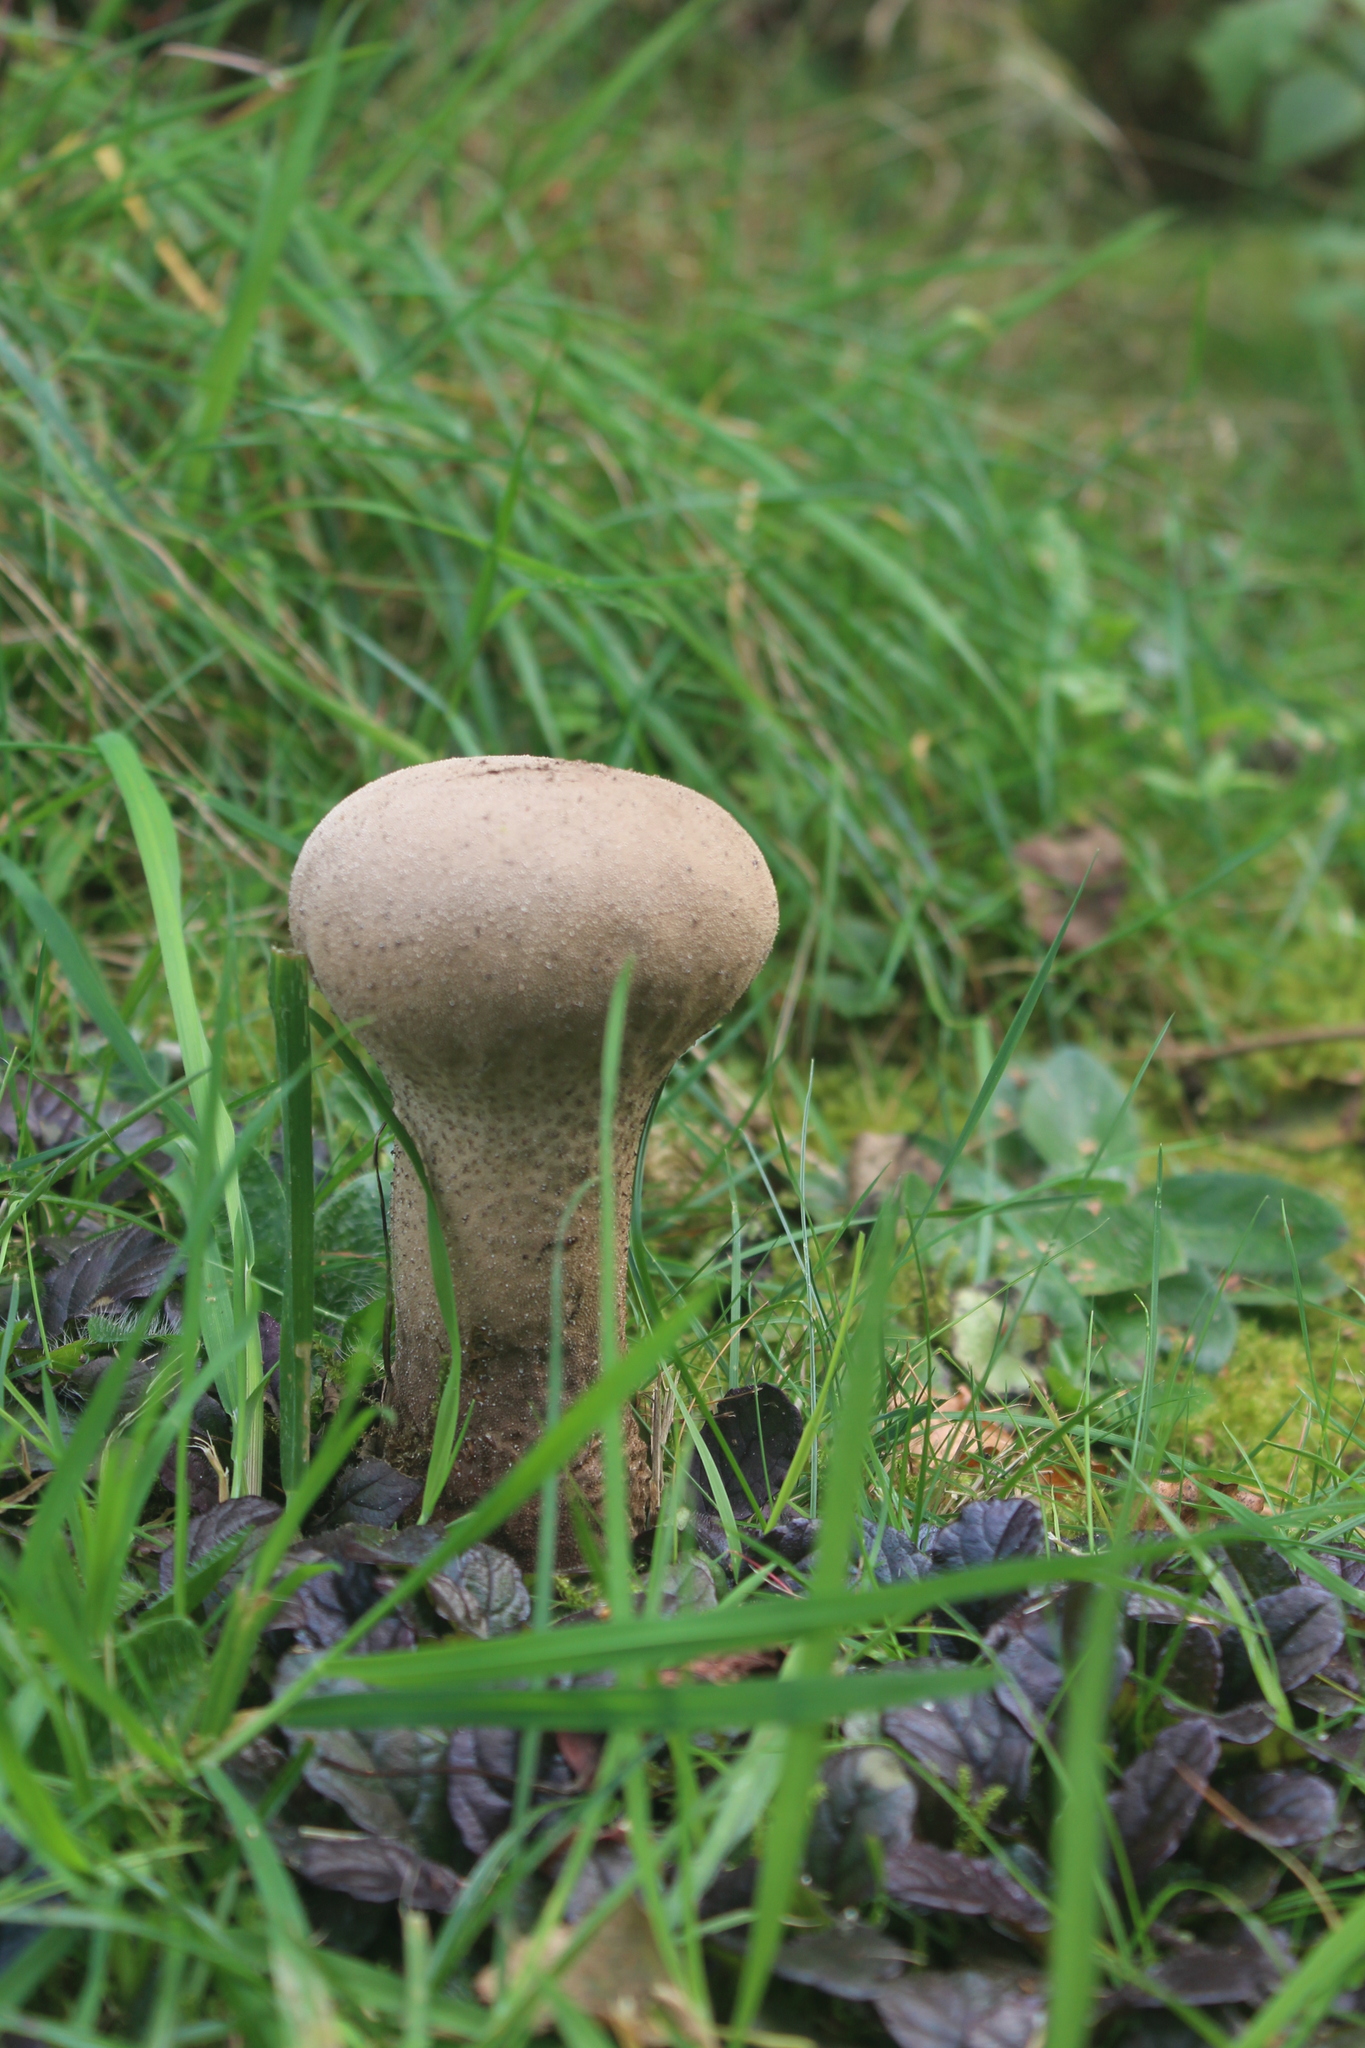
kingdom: Fungi
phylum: Basidiomycota
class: Agaricomycetes
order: Agaricales
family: Lycoperdaceae
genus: Lycoperdon
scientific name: Lycoperdon excipuliforme
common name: Pestle puffball
